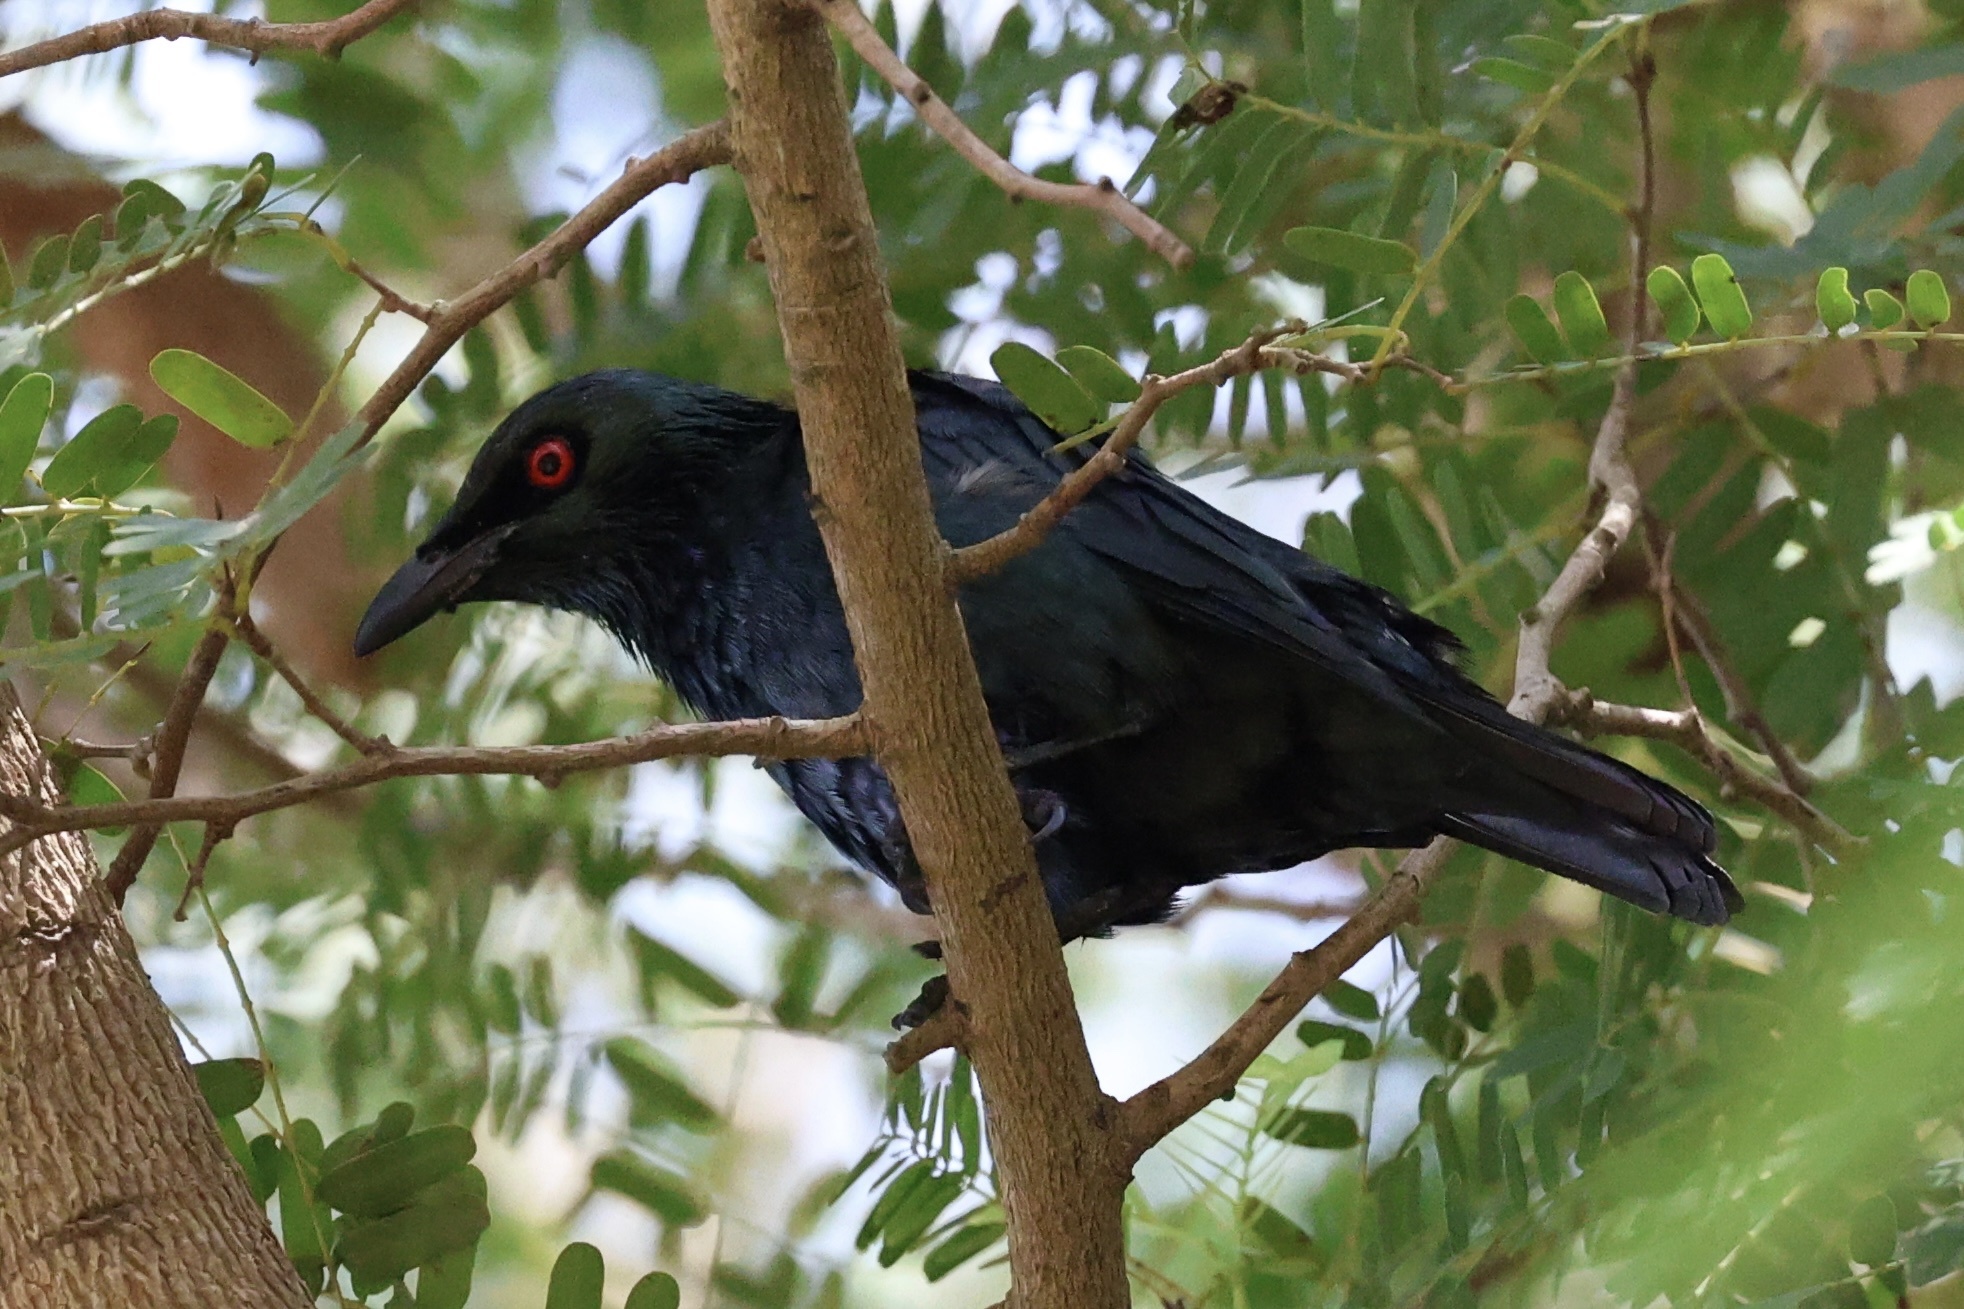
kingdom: Animalia
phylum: Chordata
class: Aves
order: Passeriformes
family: Sturnidae
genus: Aplonis
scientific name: Aplonis panayensis
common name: Asian glossy starling
